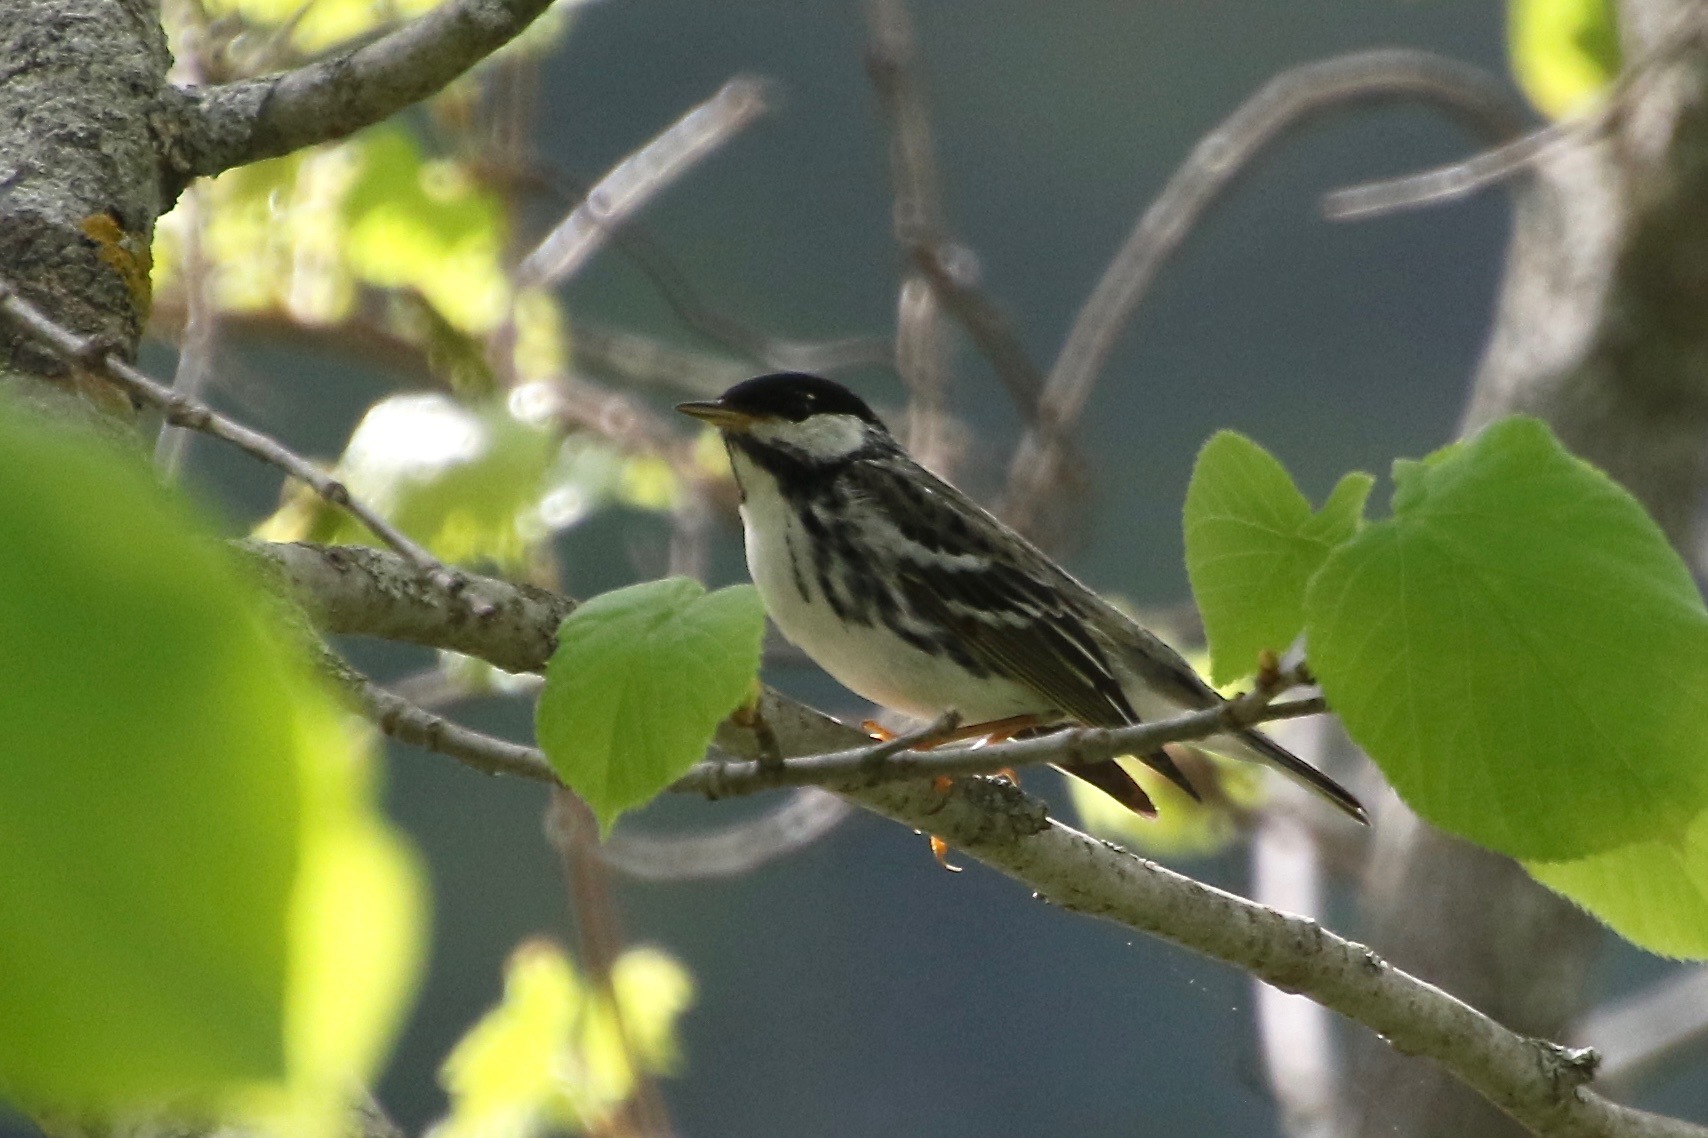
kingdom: Animalia
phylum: Chordata
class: Aves
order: Passeriformes
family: Parulidae
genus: Setophaga
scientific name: Setophaga striata
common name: Blackpoll warbler
